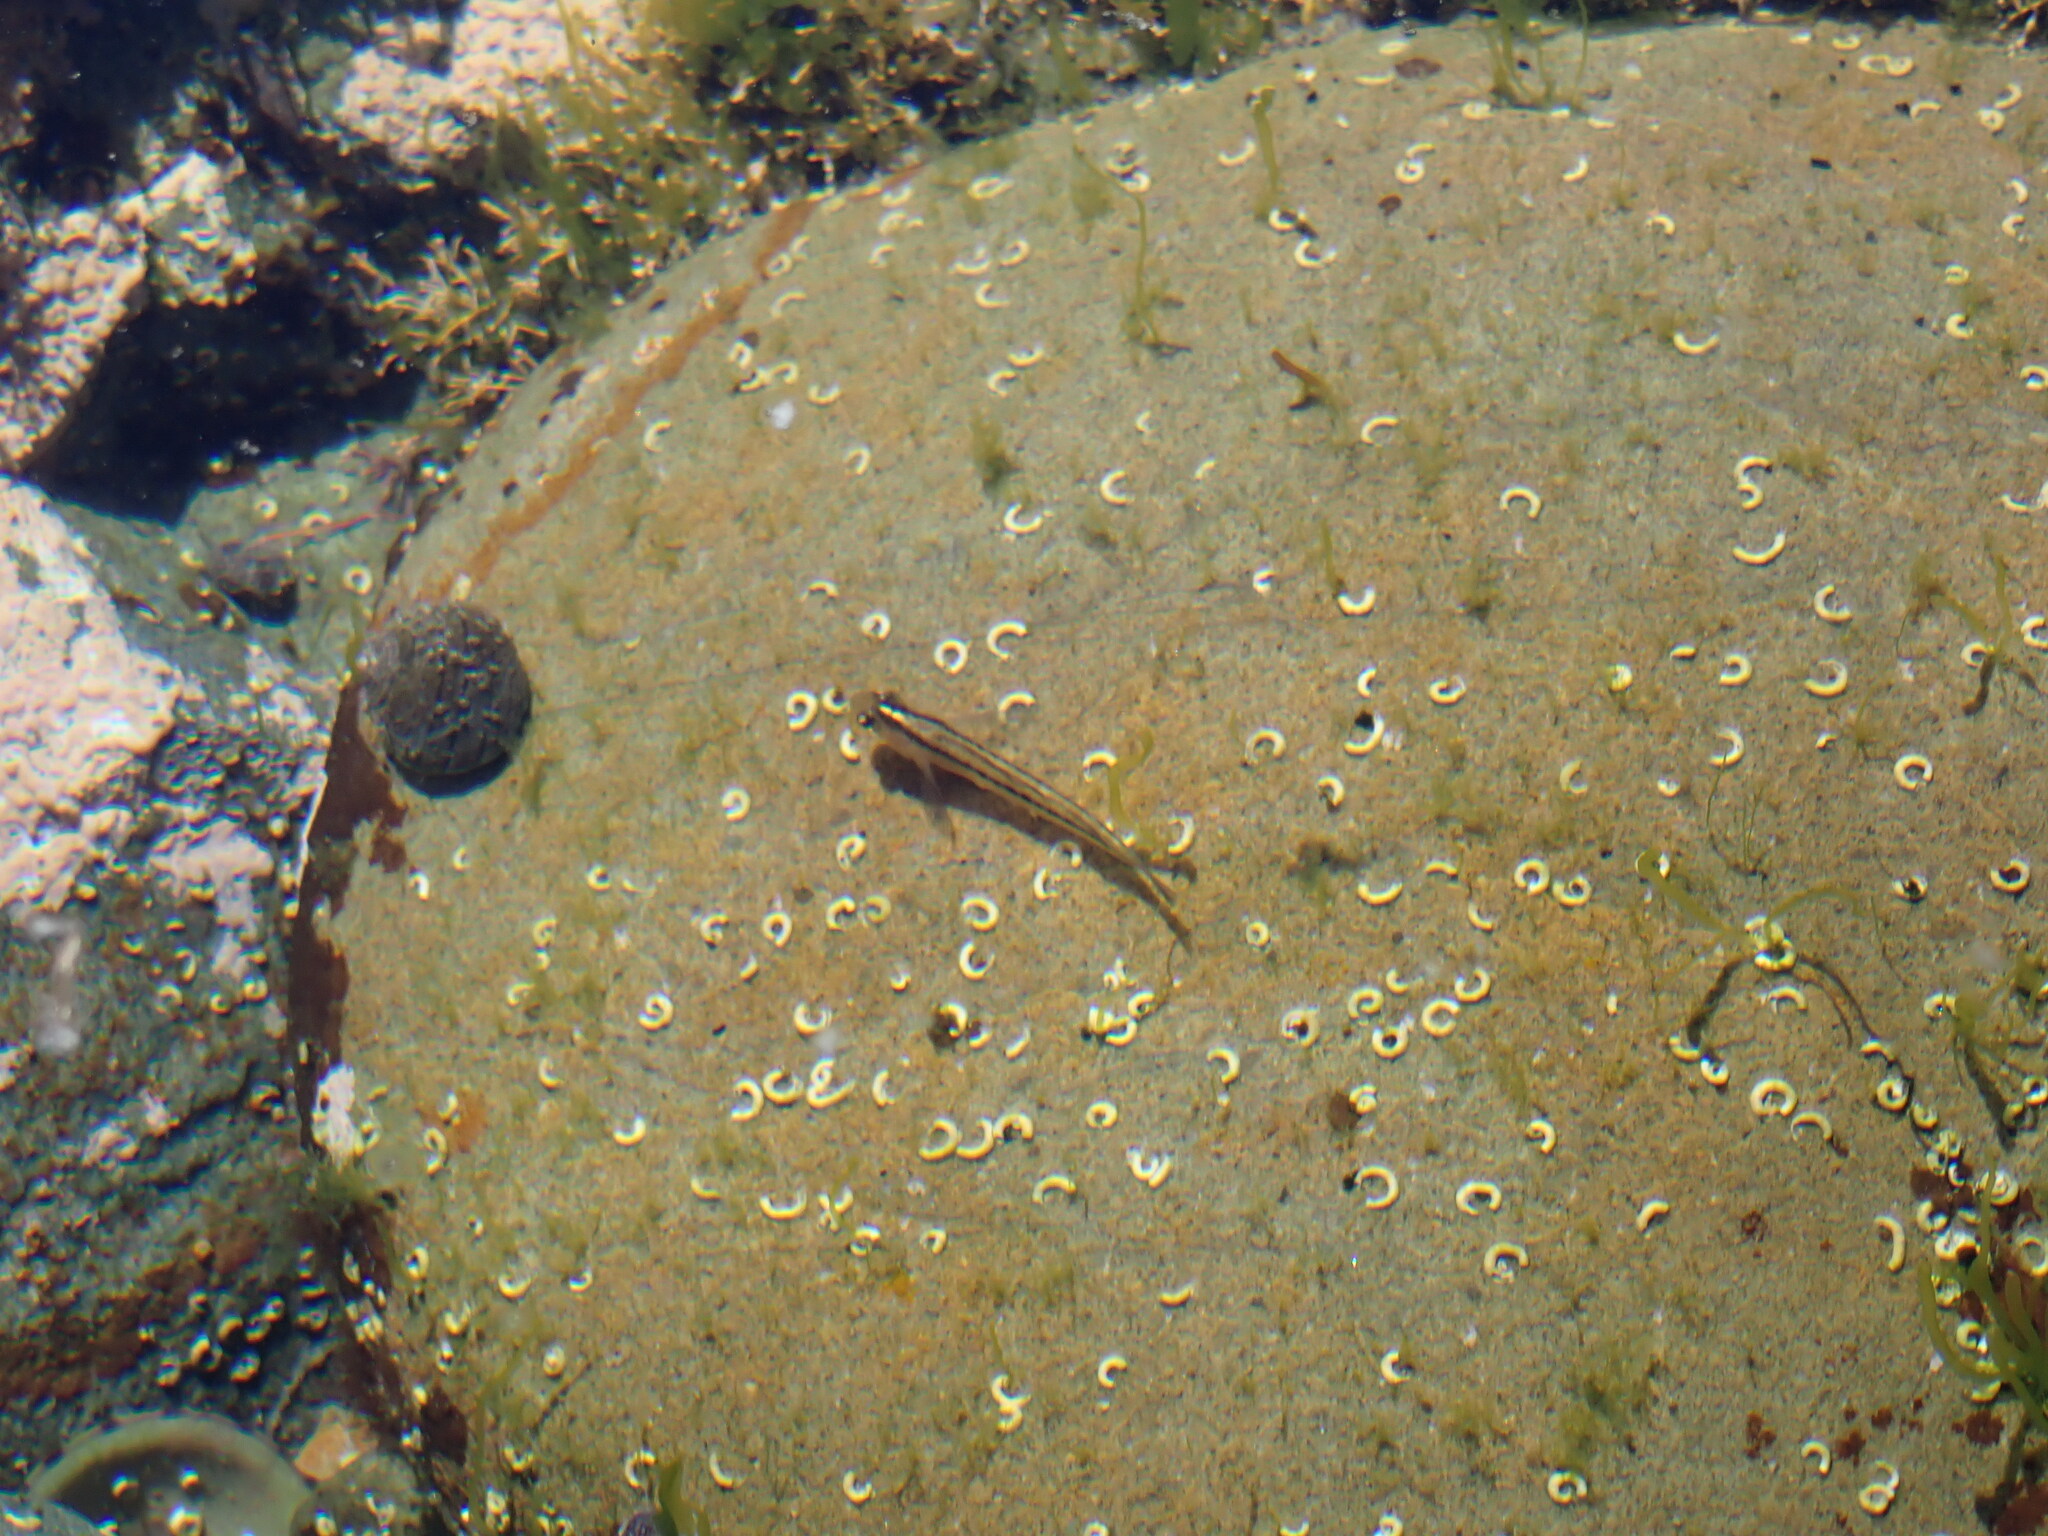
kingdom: Animalia
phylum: Chordata
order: Perciformes
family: Tripterygiidae
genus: Forsterygion
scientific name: Forsterygion lapillum
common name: Common triplefin
